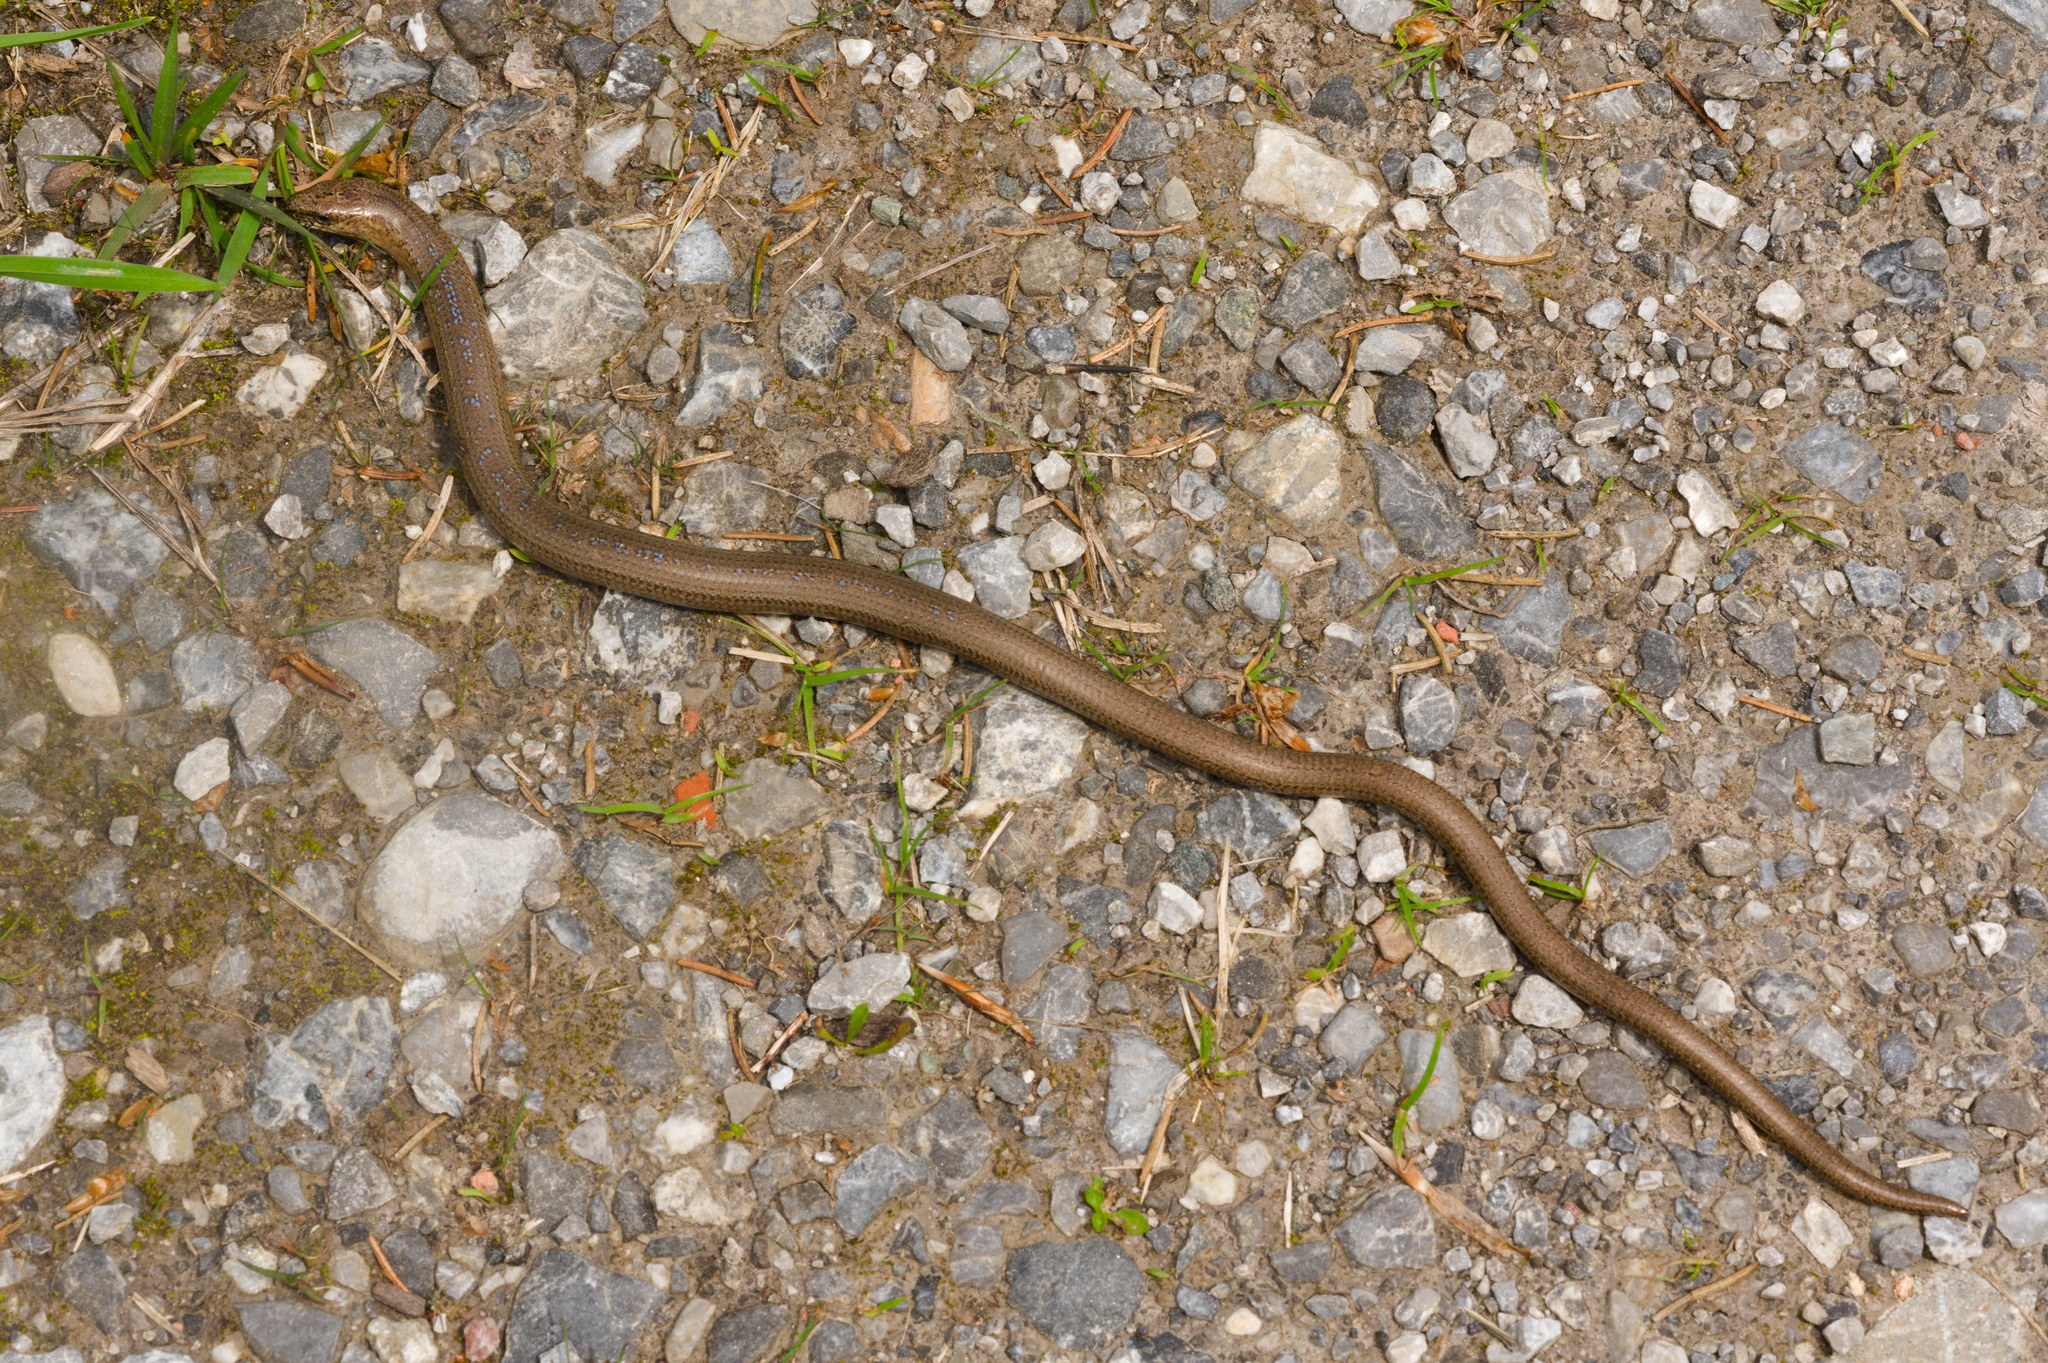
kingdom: Animalia
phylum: Chordata
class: Squamata
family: Anguidae
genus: Anguis
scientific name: Anguis fragilis
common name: Slow worm
